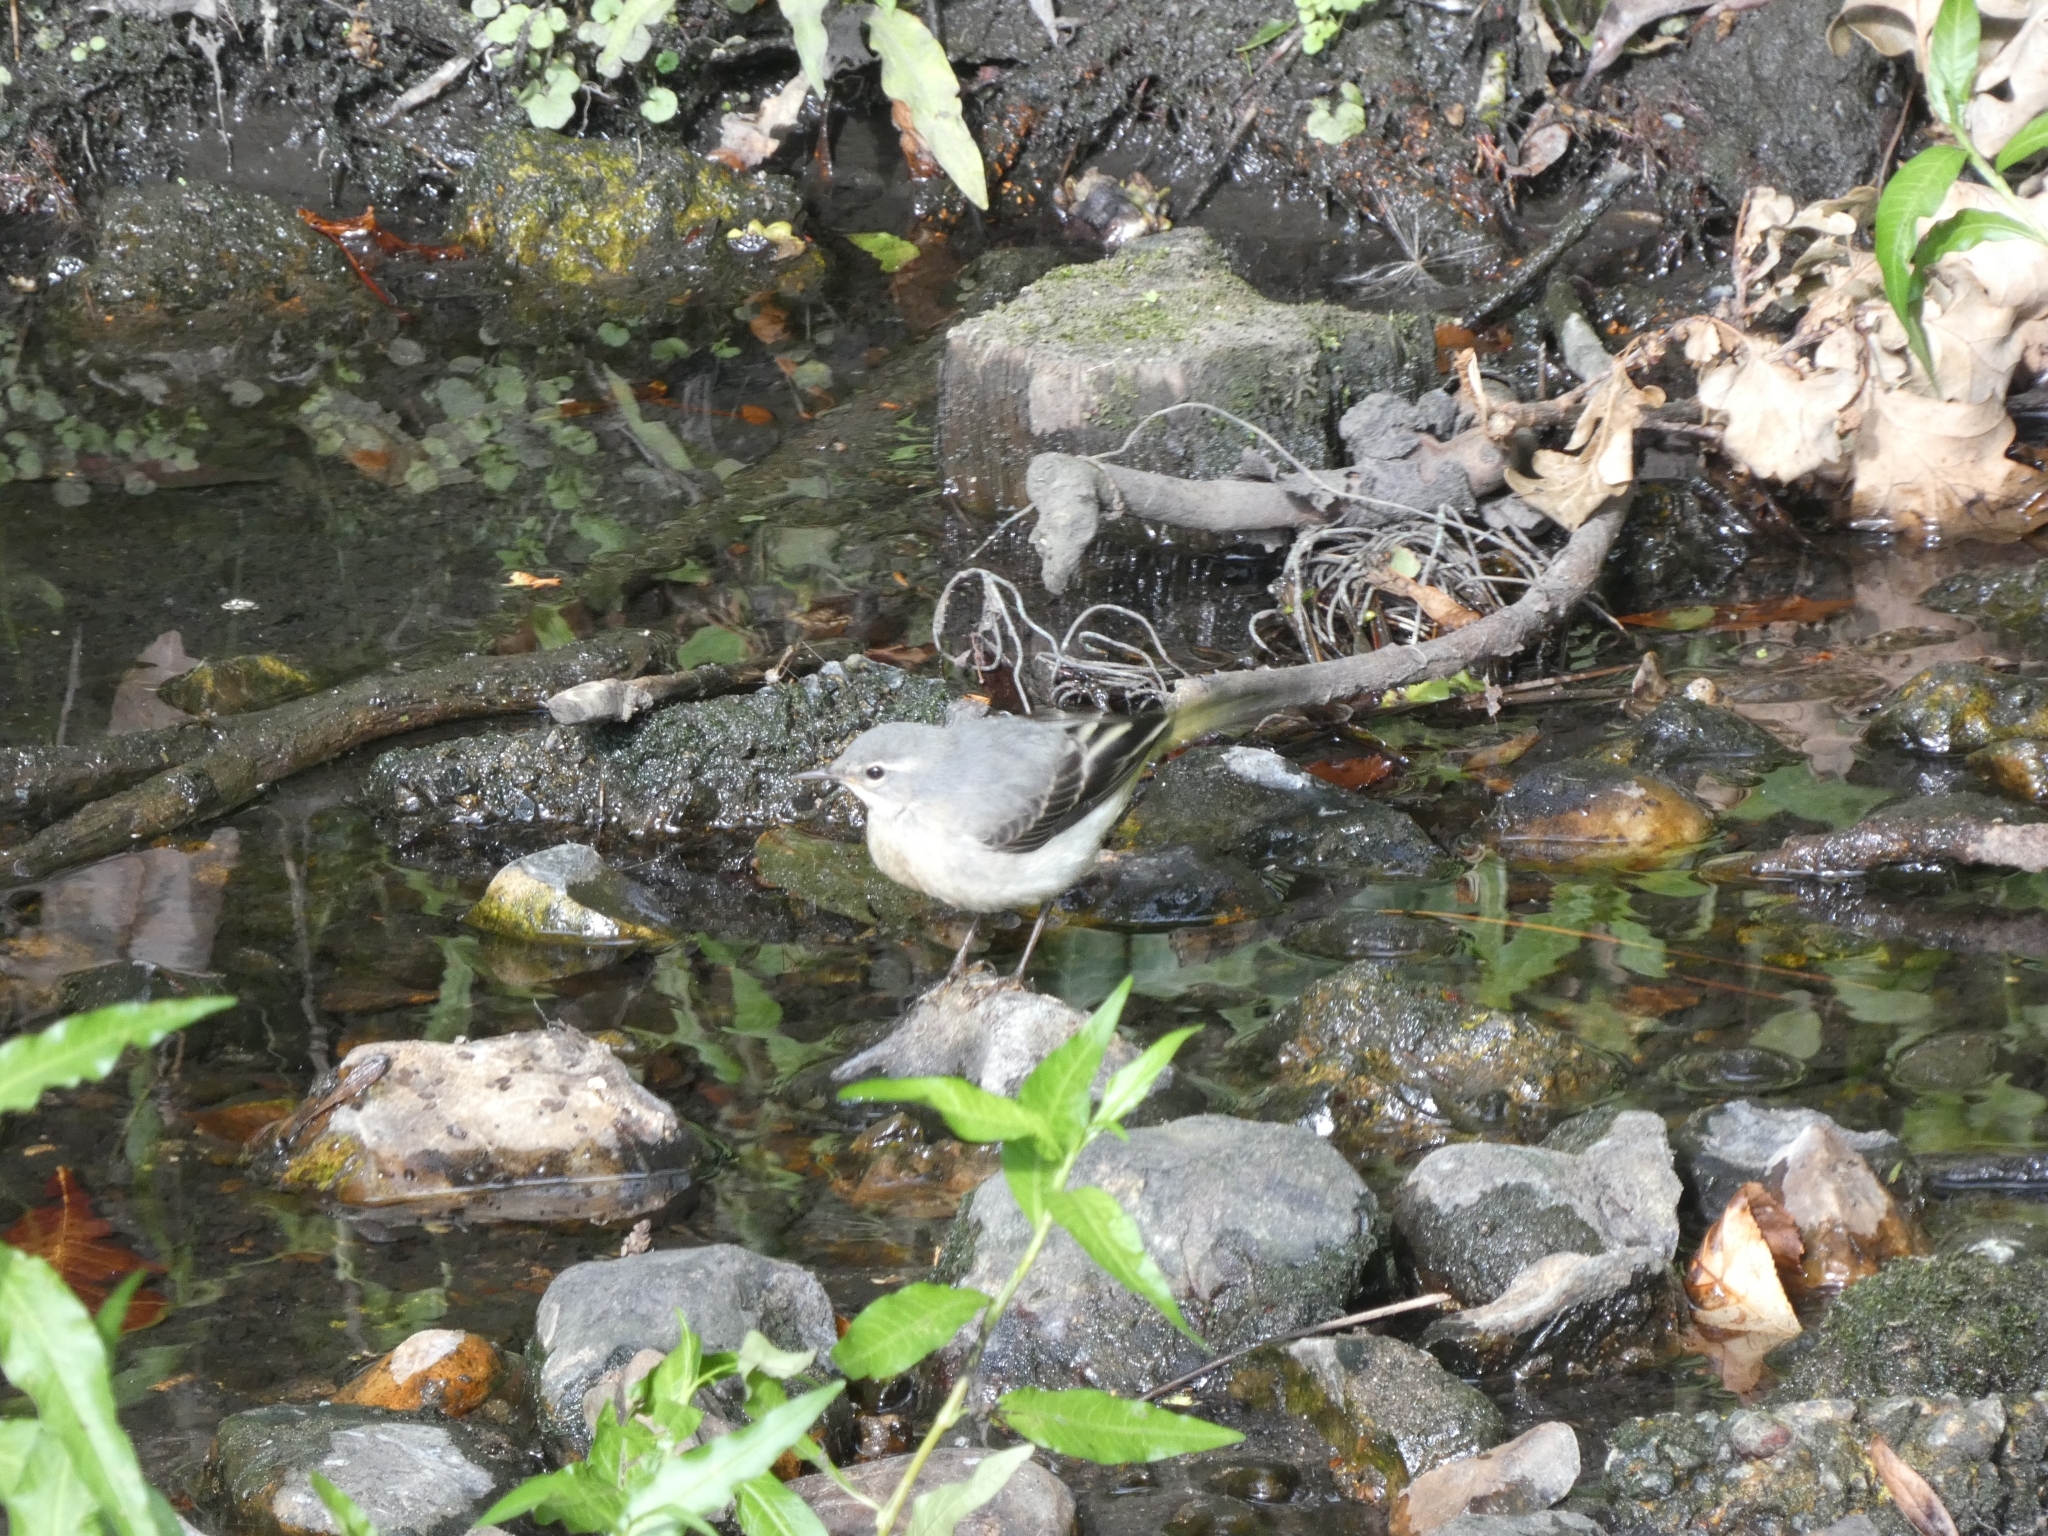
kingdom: Animalia
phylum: Chordata
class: Aves
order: Passeriformes
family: Motacillidae
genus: Motacilla
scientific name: Motacilla cinerea
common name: Grey wagtail
